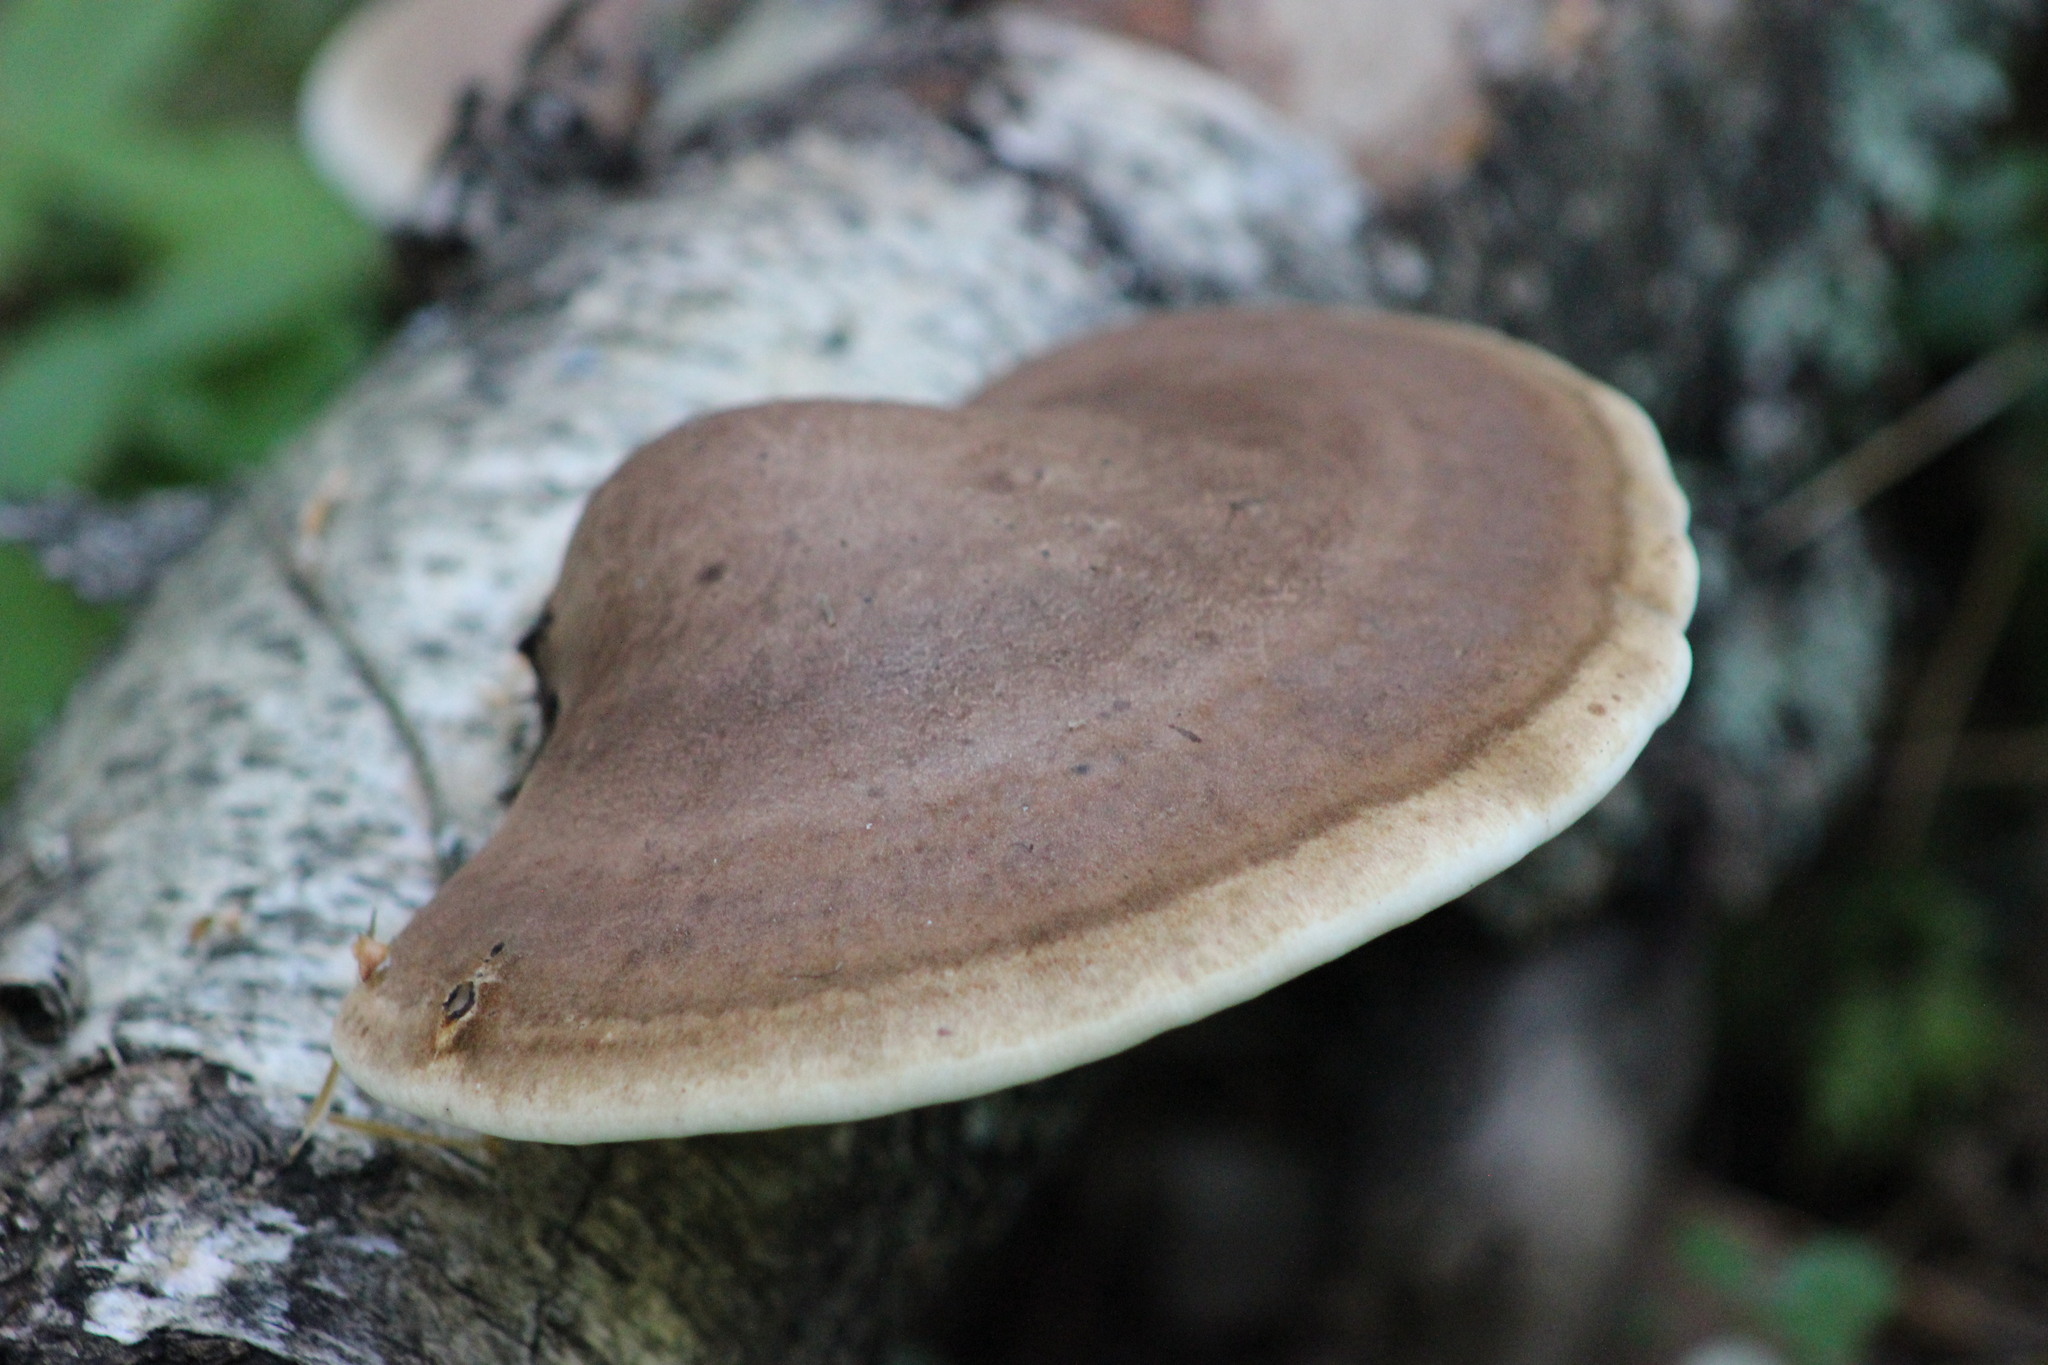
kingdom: Fungi
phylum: Basidiomycota
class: Agaricomycetes
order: Polyporales
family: Fomitopsidaceae
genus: Fomitopsis
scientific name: Fomitopsis betulina
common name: Birch polypore
